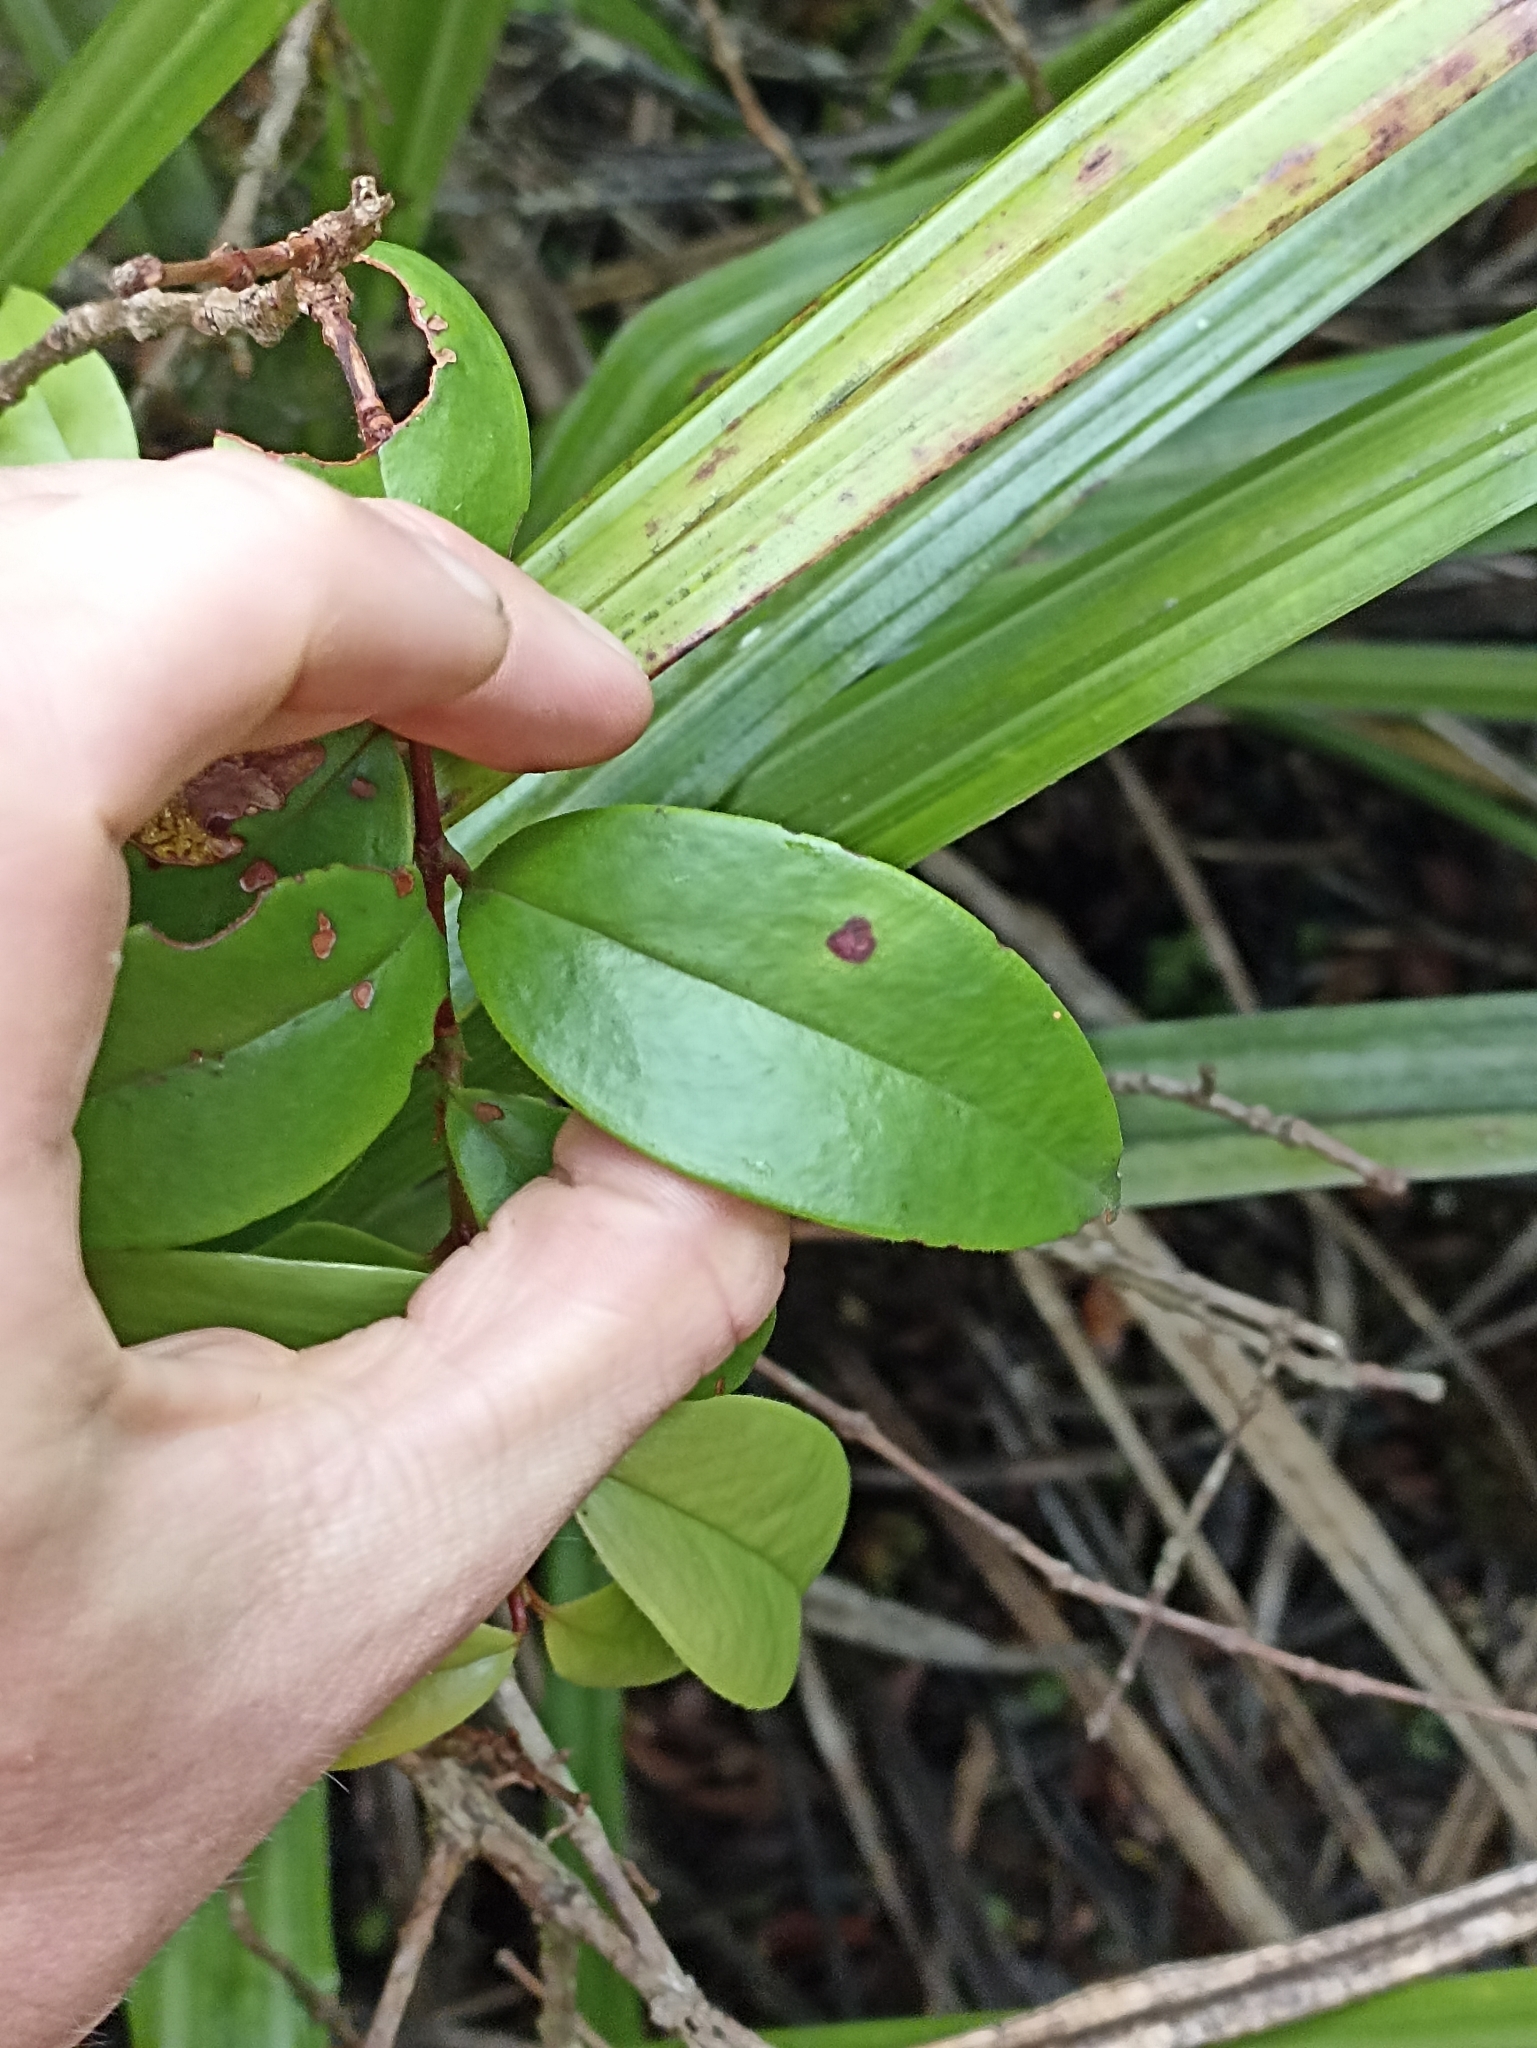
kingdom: Plantae
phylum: Tracheophyta
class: Magnoliopsida
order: Myrtales
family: Myrtaceae
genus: Metrosideros
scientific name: Metrosideros albiflora
